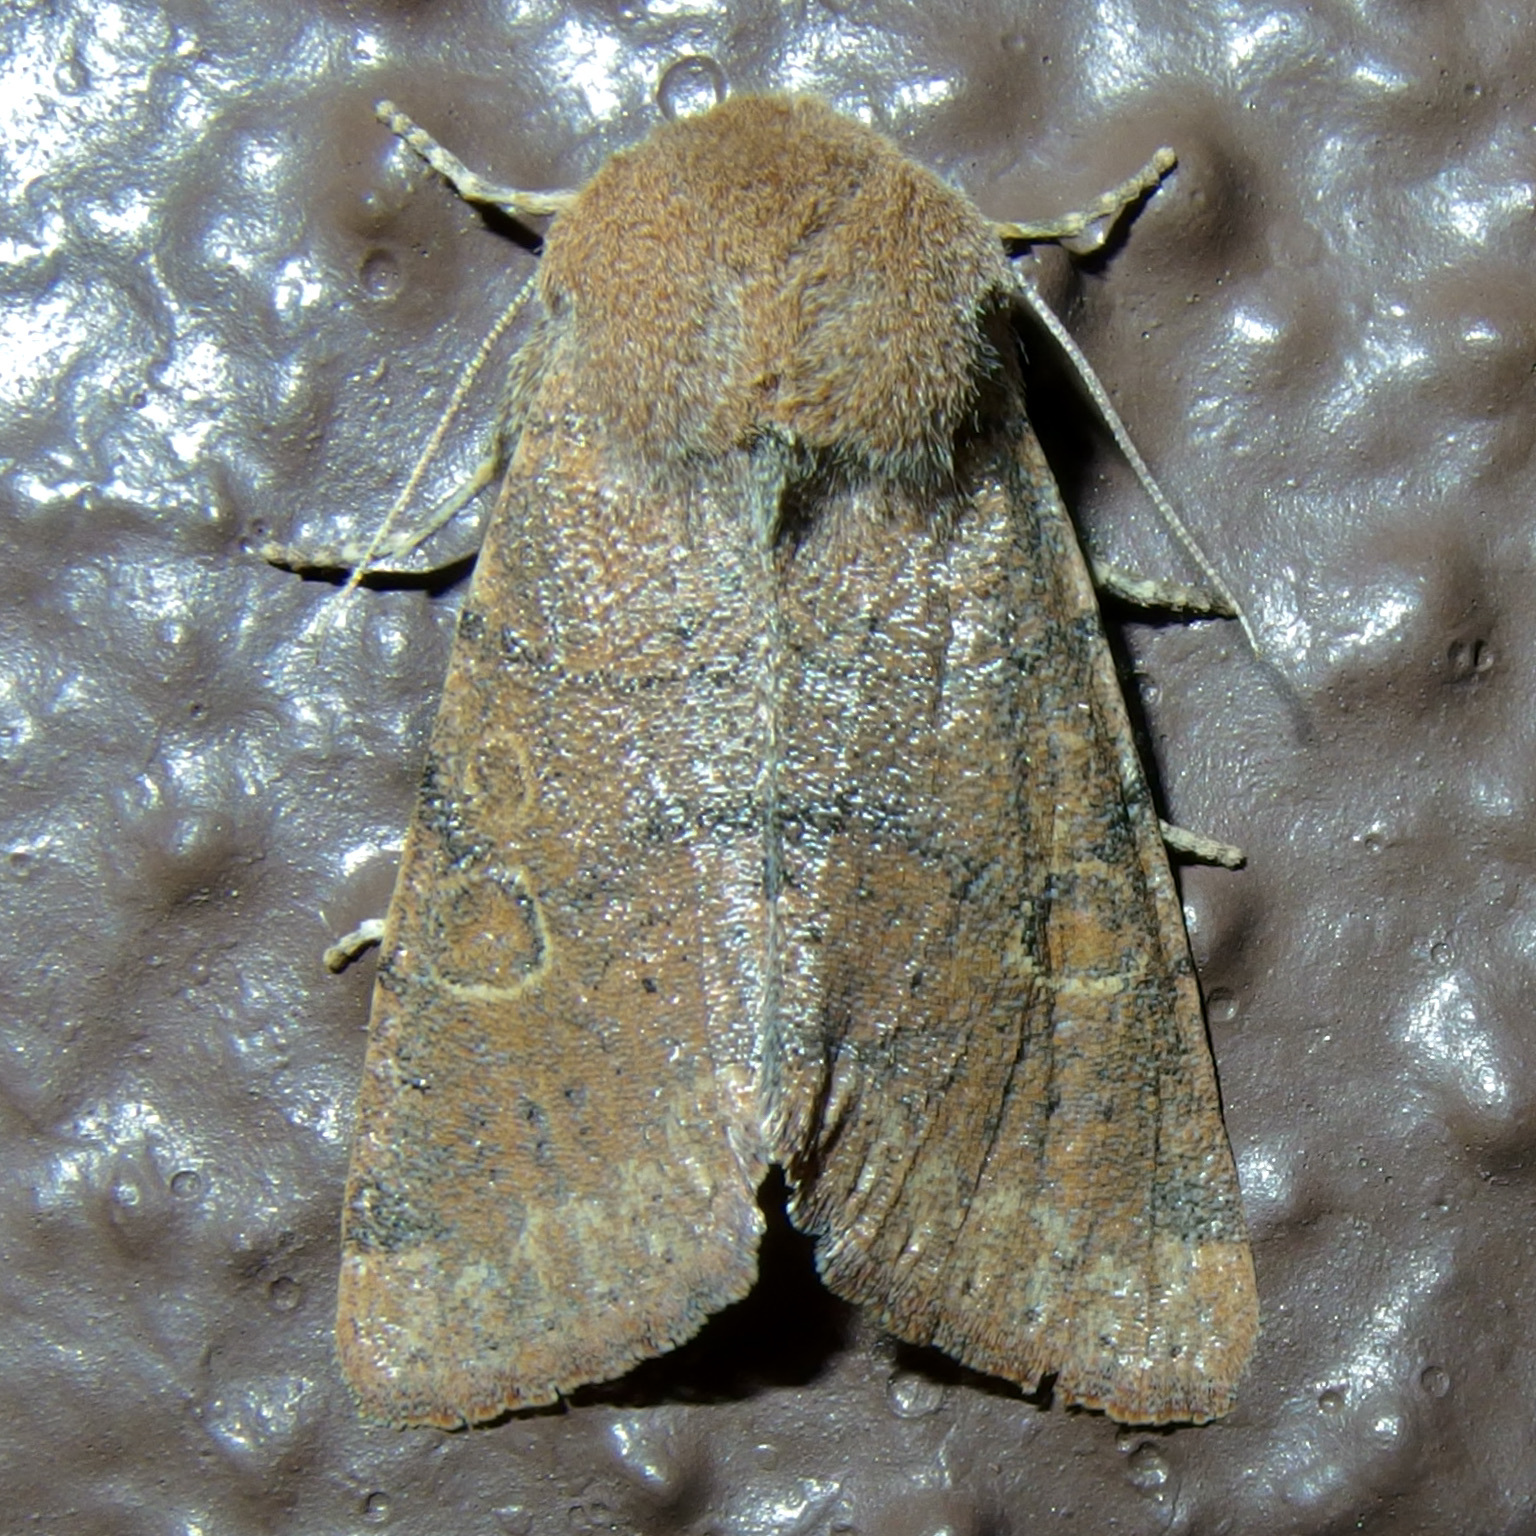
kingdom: Animalia
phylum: Arthropoda
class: Insecta
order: Lepidoptera
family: Noctuidae
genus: Orthosia
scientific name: Orthosia annulimacula
